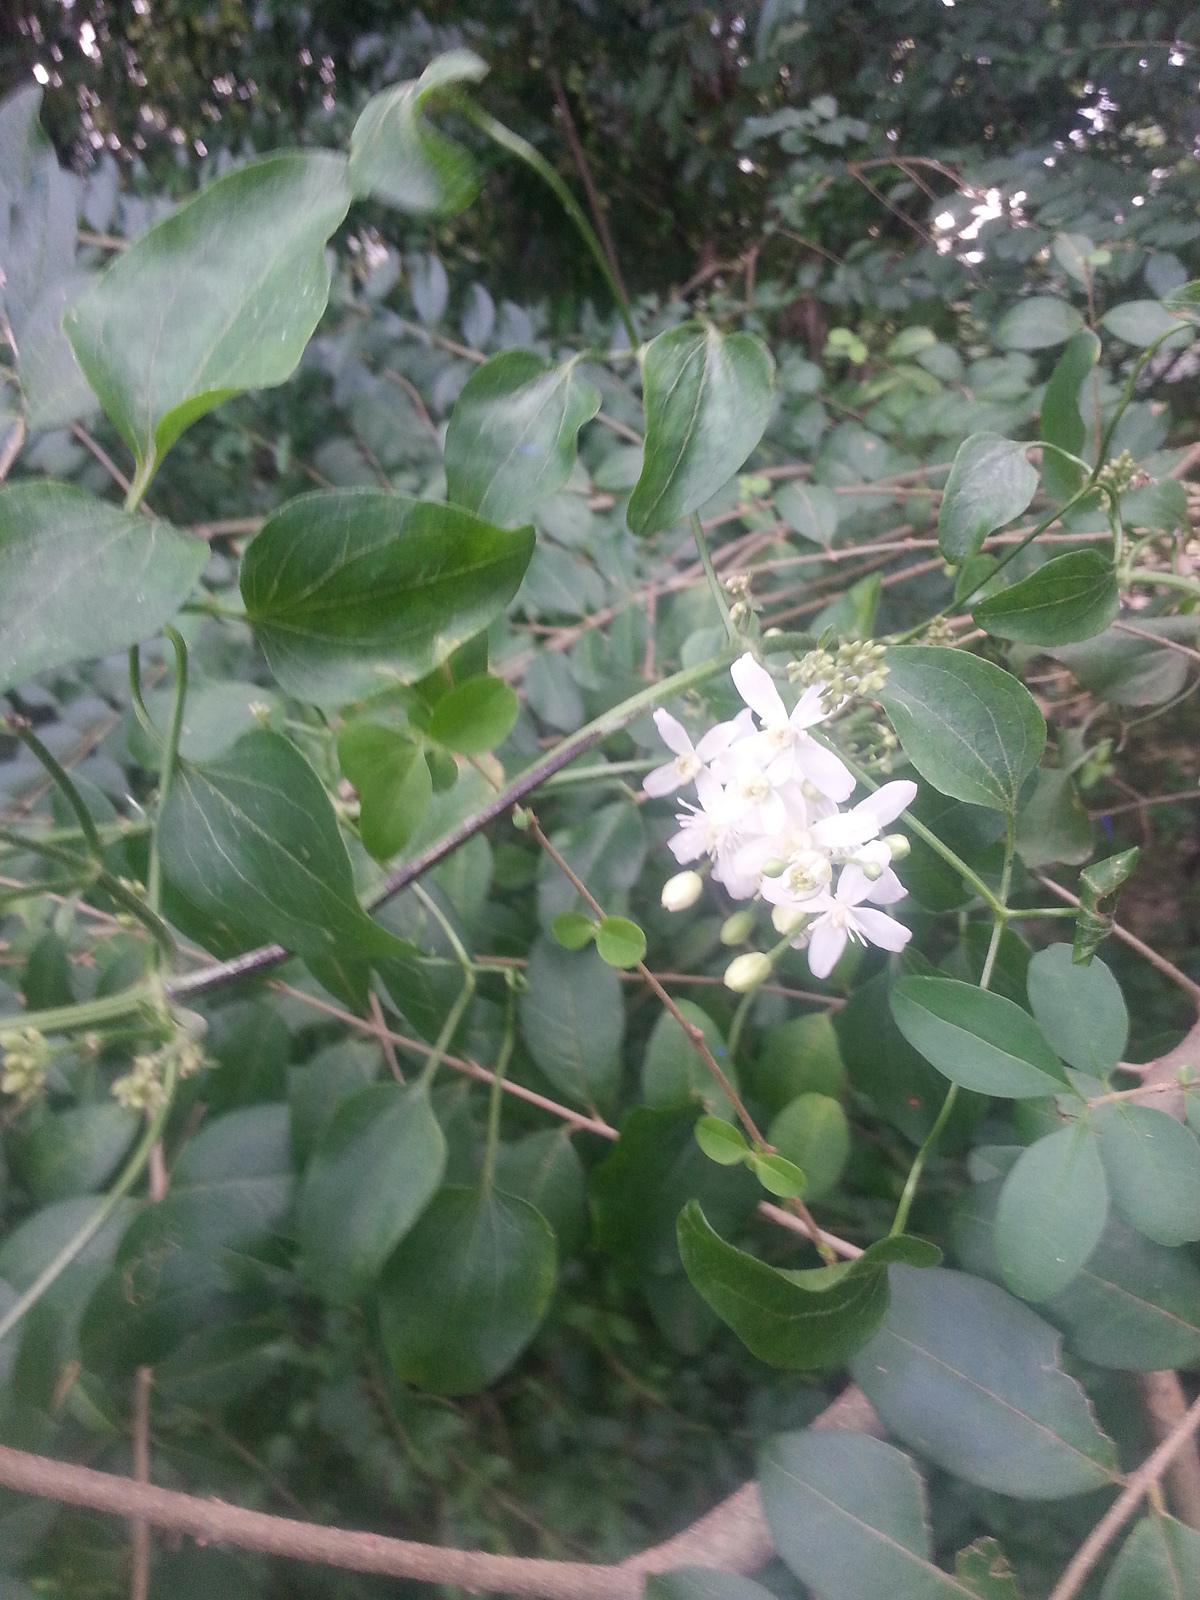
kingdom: Plantae
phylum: Tracheophyta
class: Magnoliopsida
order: Ranunculales
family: Ranunculaceae
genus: Clematis
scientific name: Clematis terniflora
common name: Sweet autumn clematis
